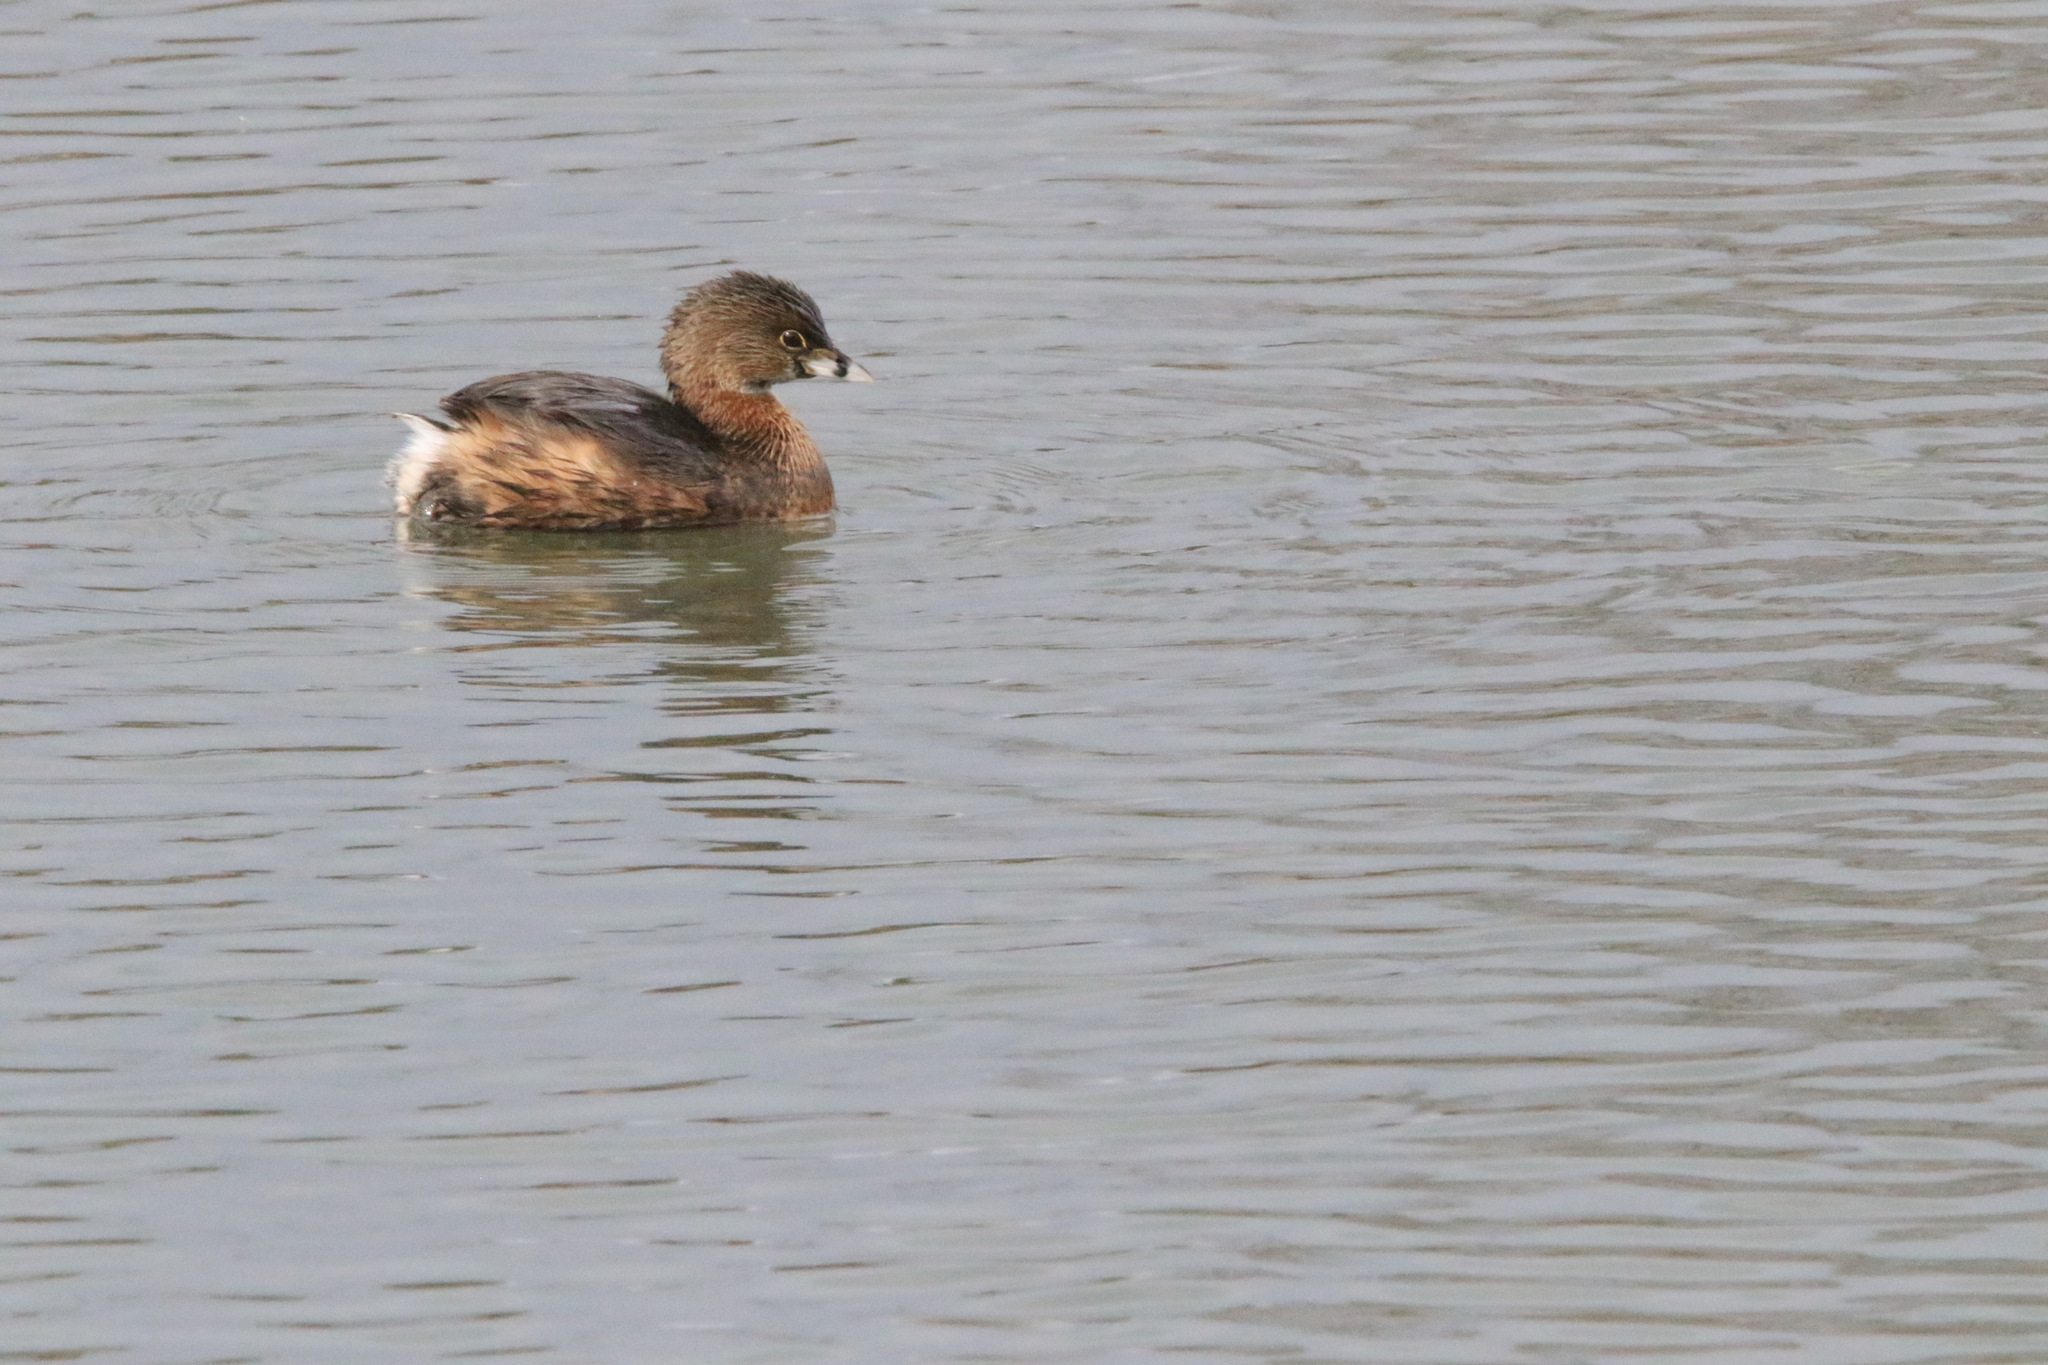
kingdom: Animalia
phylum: Chordata
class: Aves
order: Podicipediformes
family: Podicipedidae
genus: Podilymbus
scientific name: Podilymbus podiceps
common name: Pied-billed grebe
